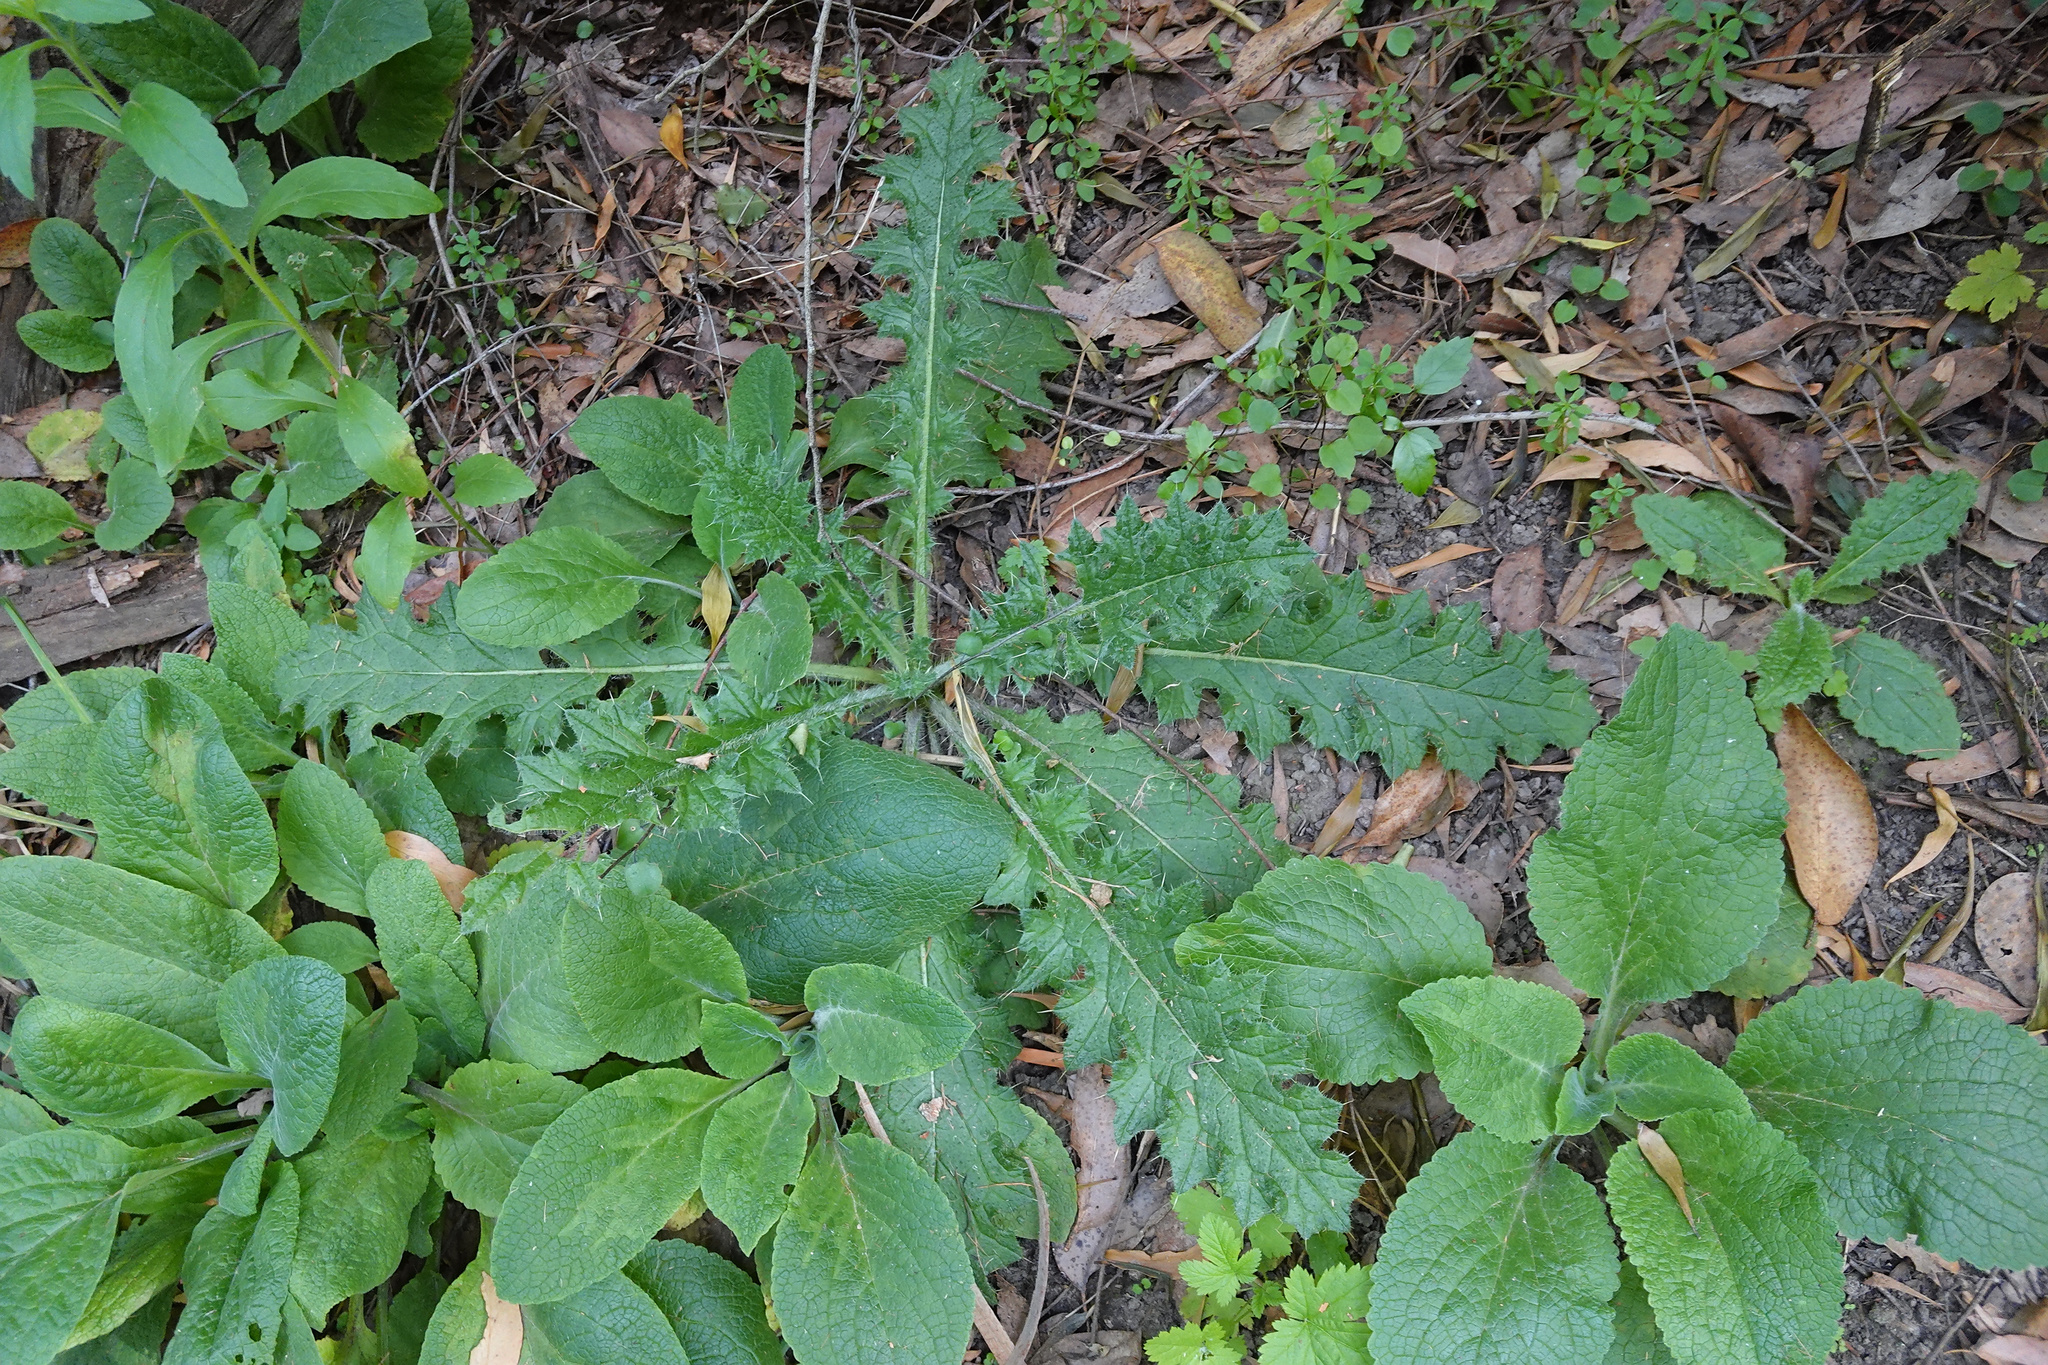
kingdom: Plantae
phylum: Tracheophyta
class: Magnoliopsida
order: Asterales
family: Asteraceae
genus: Cirsium
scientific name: Cirsium vulgare
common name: Bull thistle
